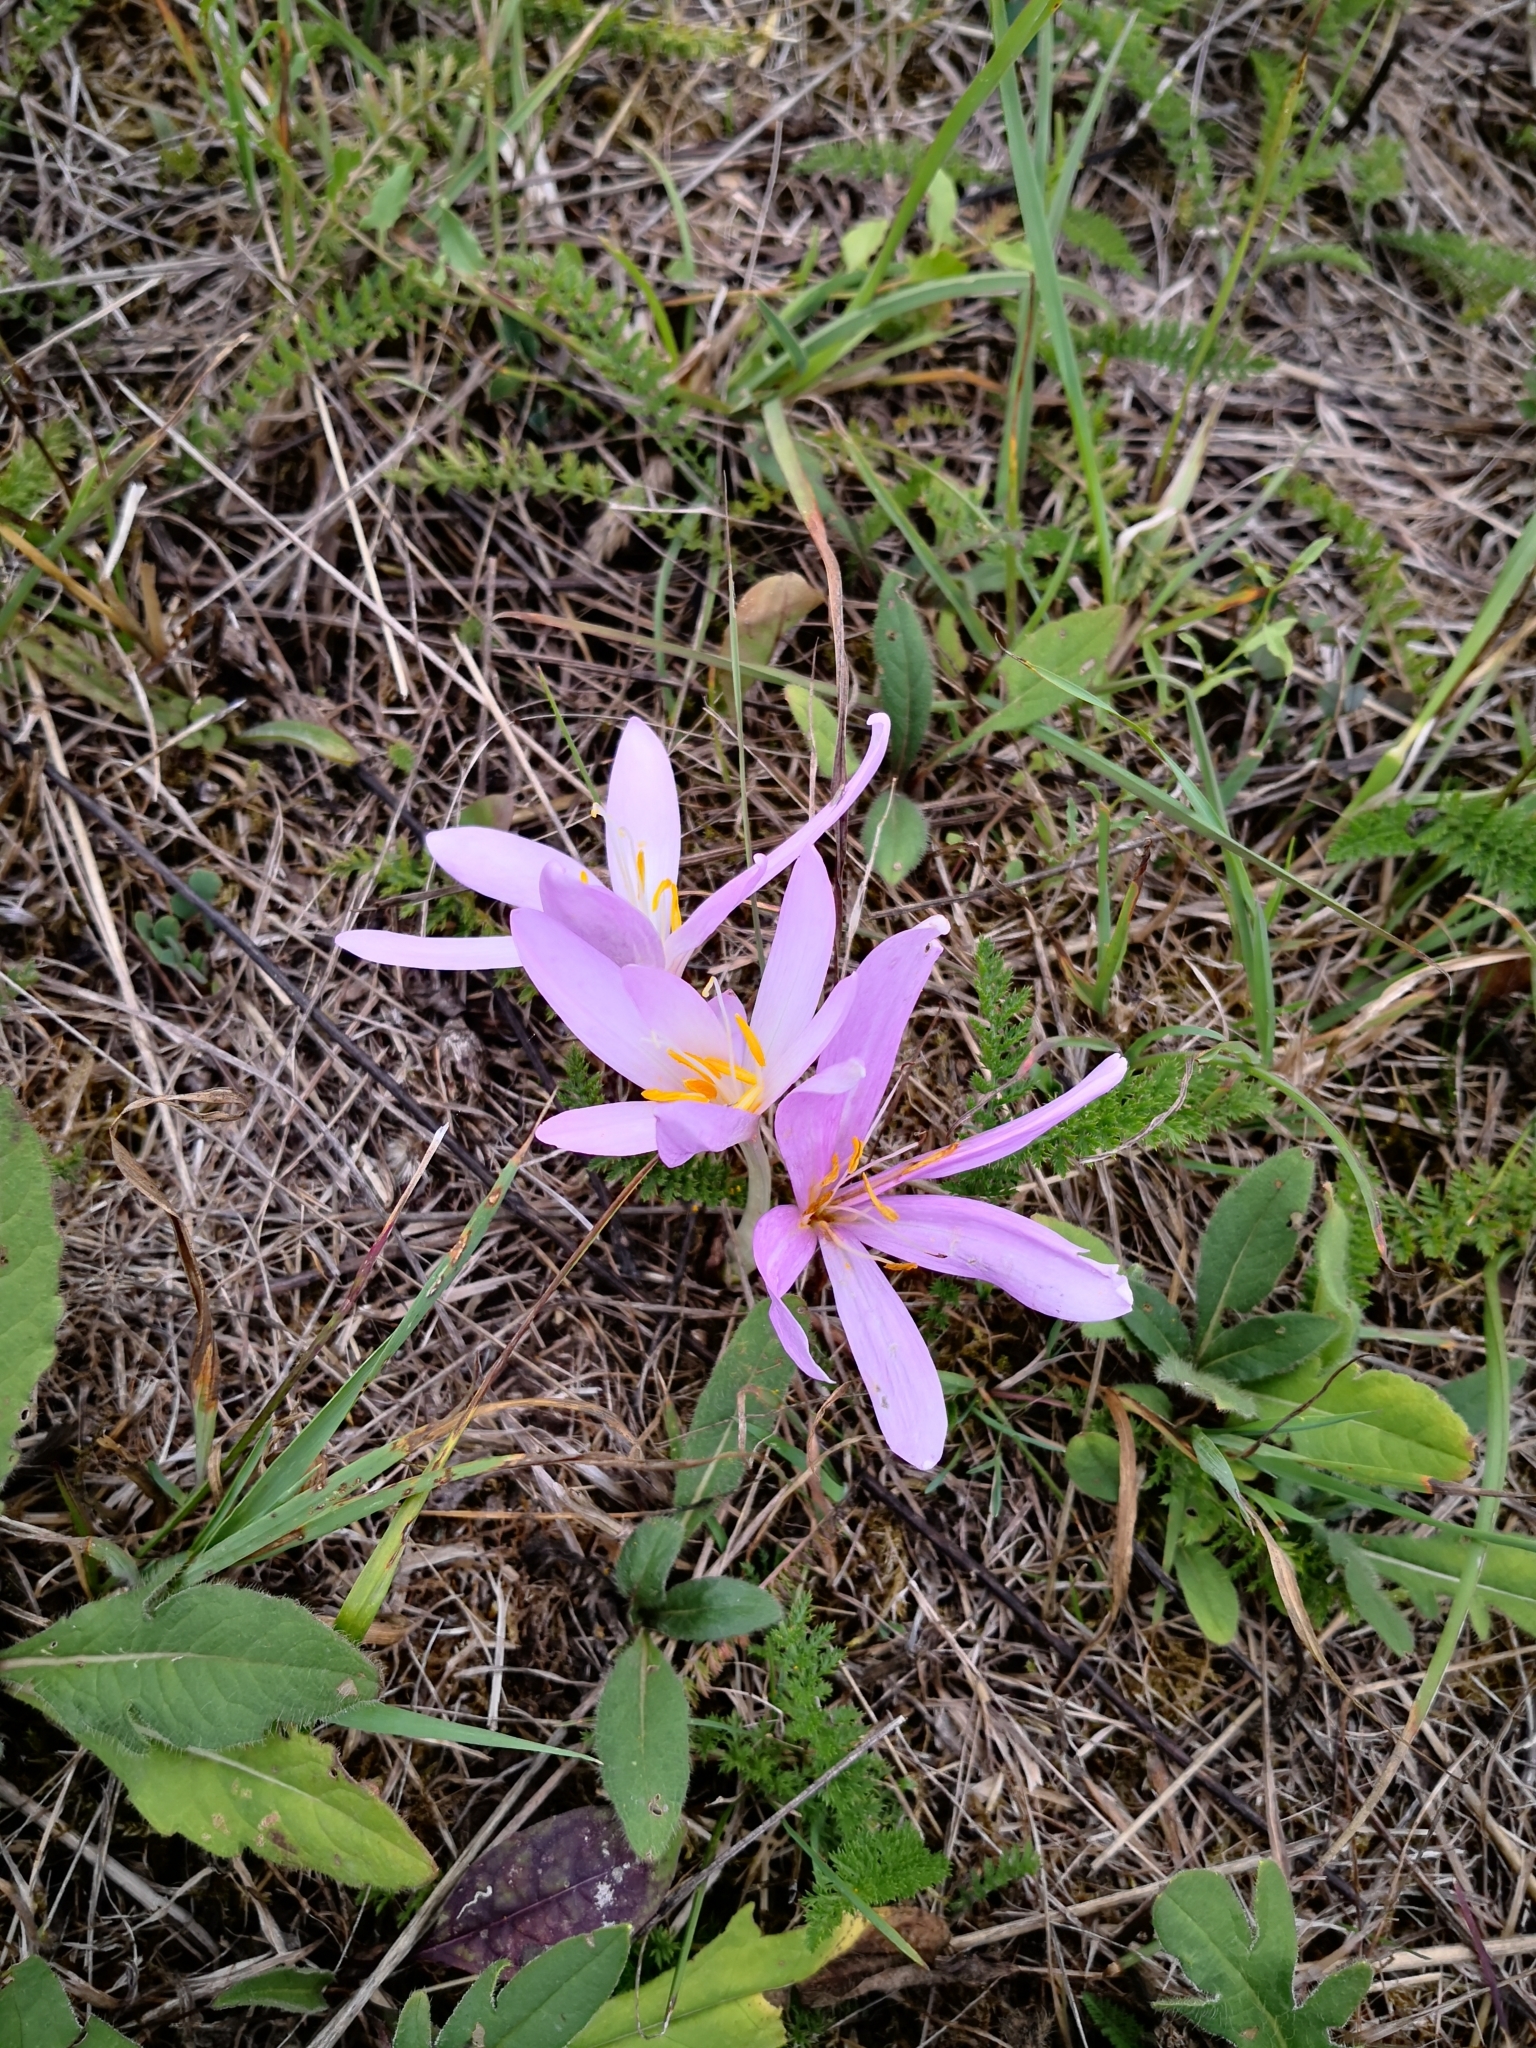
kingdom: Plantae
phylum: Tracheophyta
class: Liliopsida
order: Liliales
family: Colchicaceae
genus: Colchicum
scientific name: Colchicum autumnale
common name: Autumn crocus
